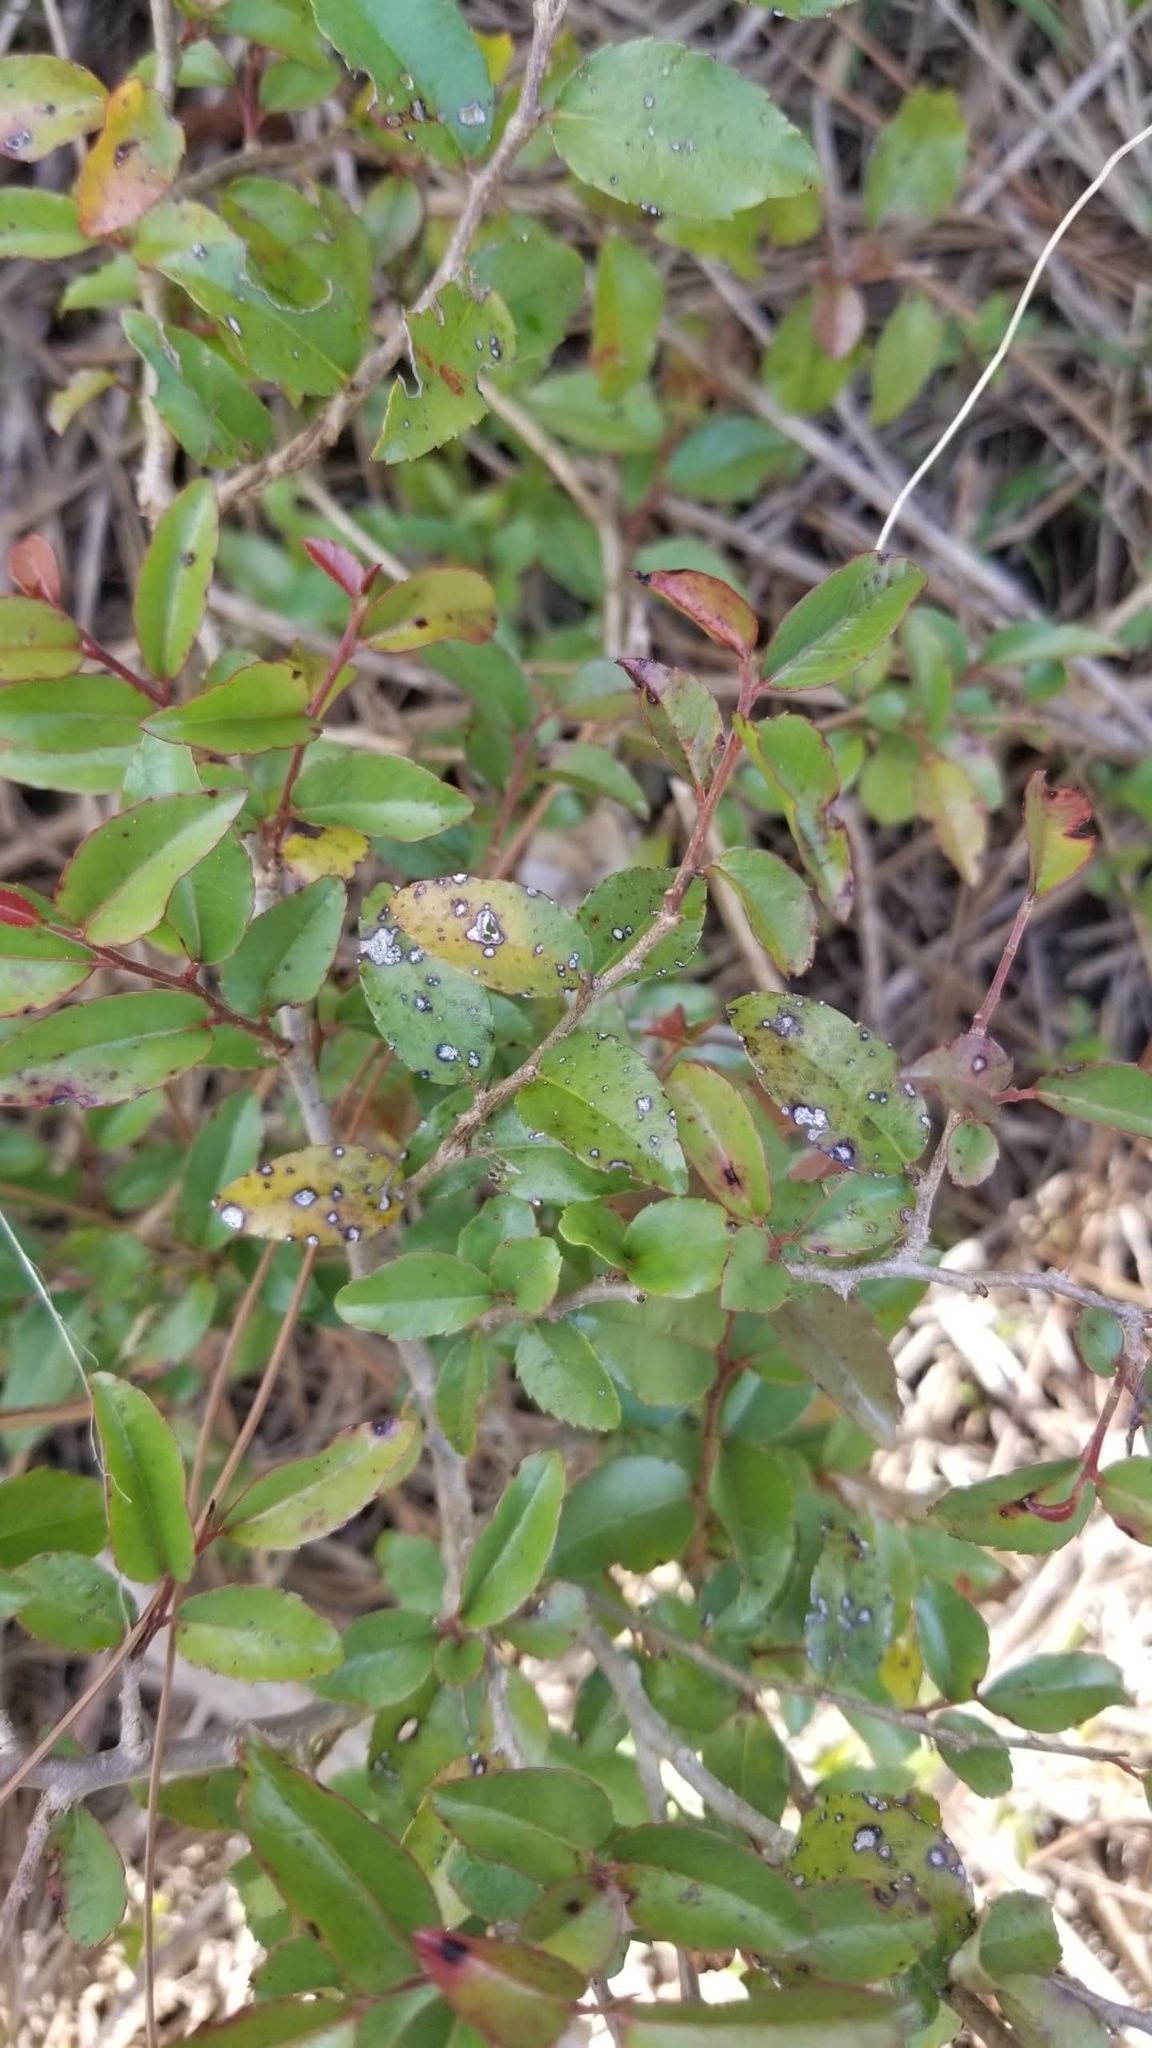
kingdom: Plantae
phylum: Tracheophyta
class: Magnoliopsida
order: Malpighiales
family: Salicaceae
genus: Flacourtia
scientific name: Flacourtia indica
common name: Governor's plum
